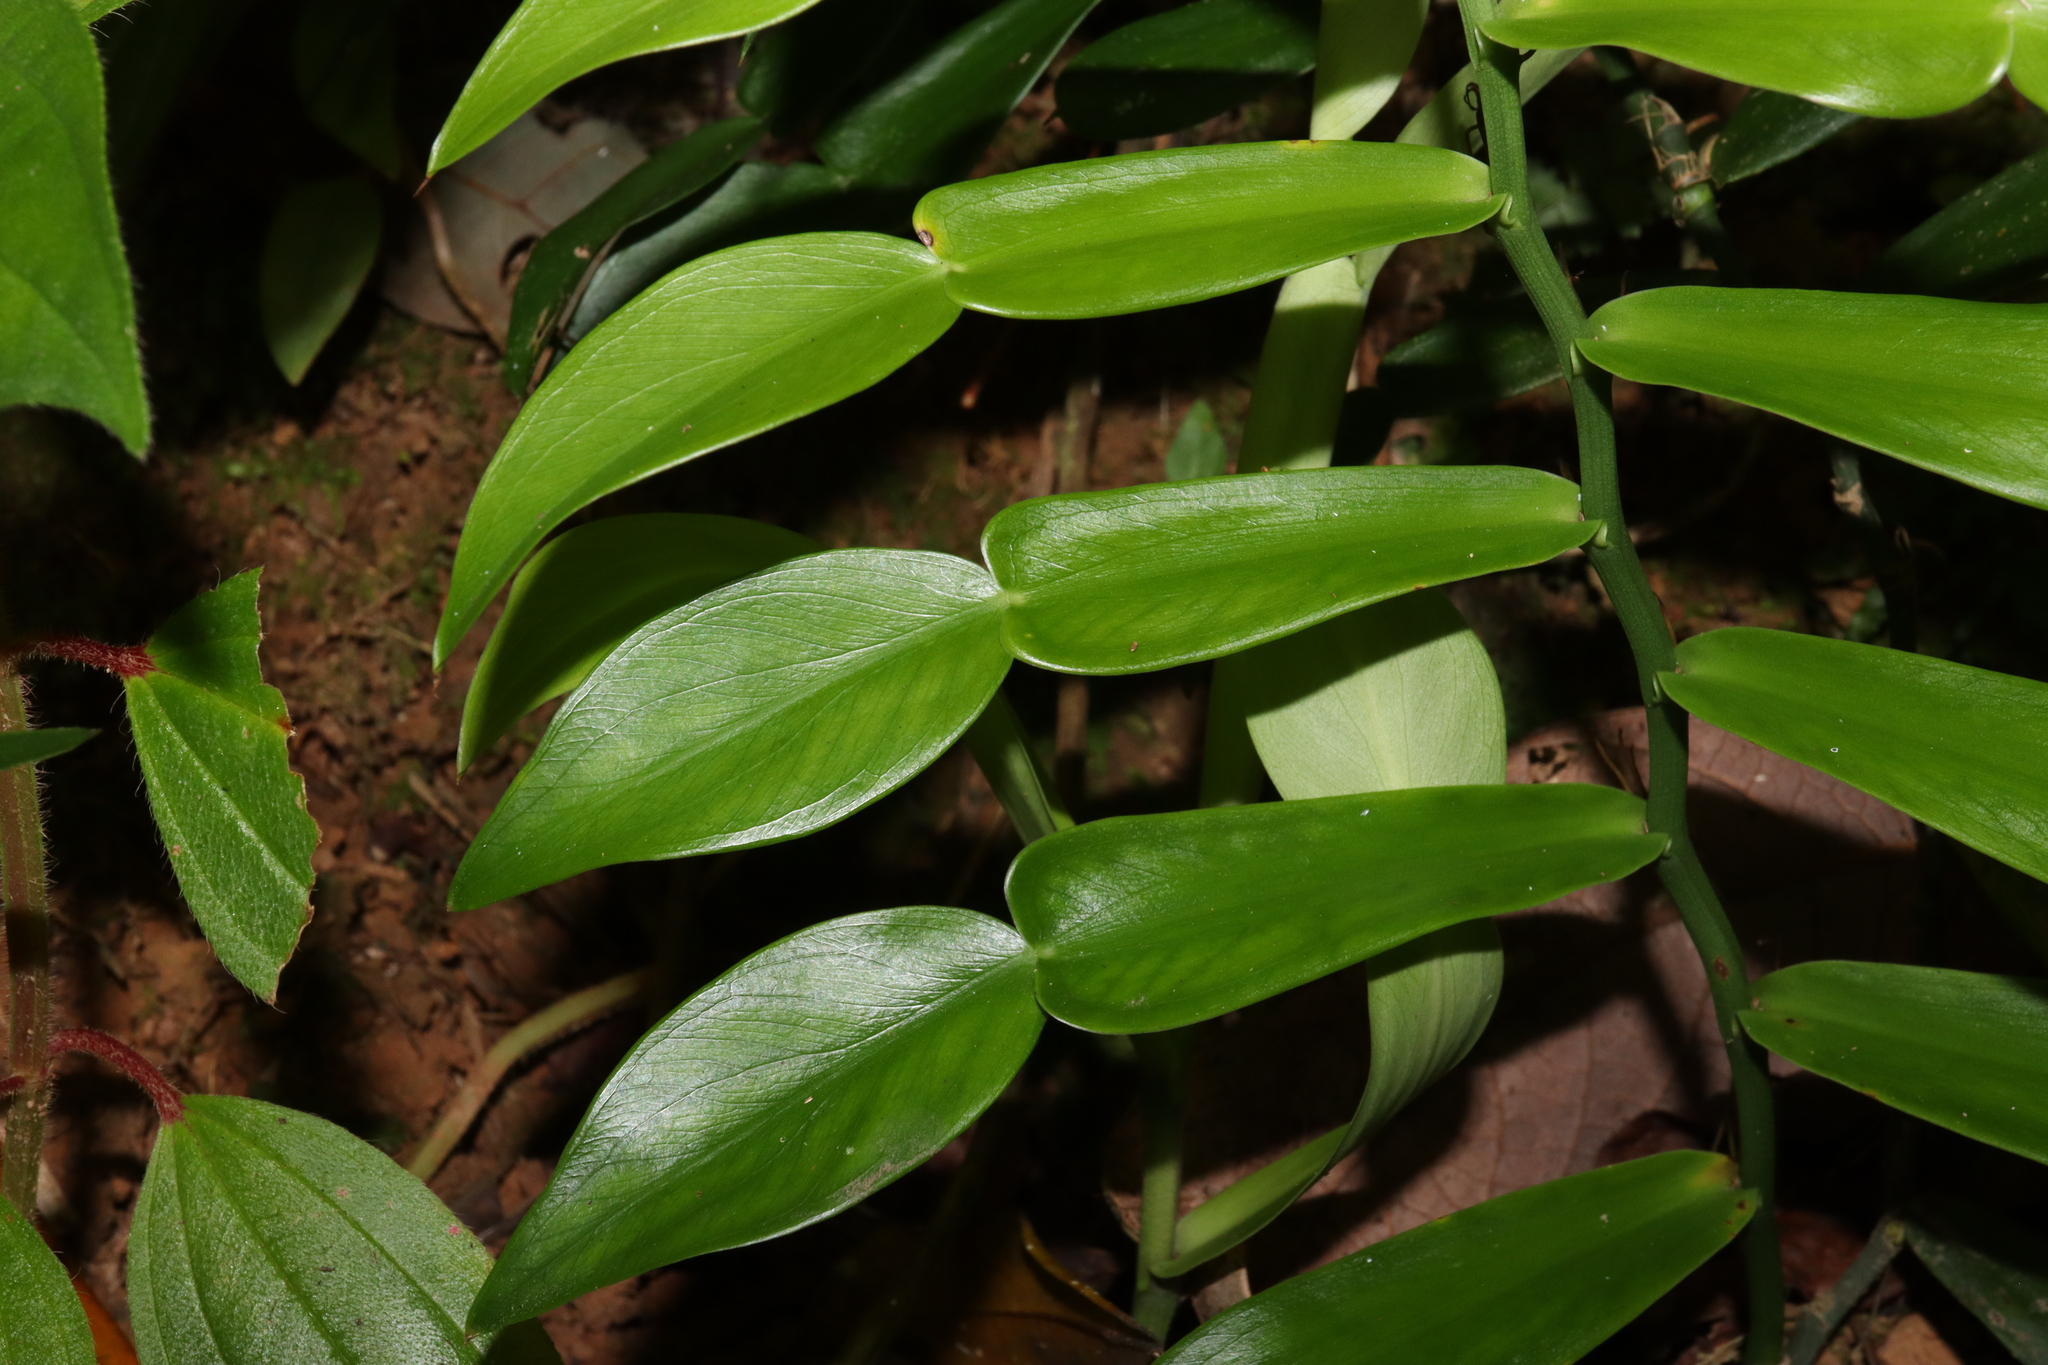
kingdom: Plantae
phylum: Tracheophyta
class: Liliopsida
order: Alismatales
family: Araceae
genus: Pothos
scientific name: Pothos longipes
